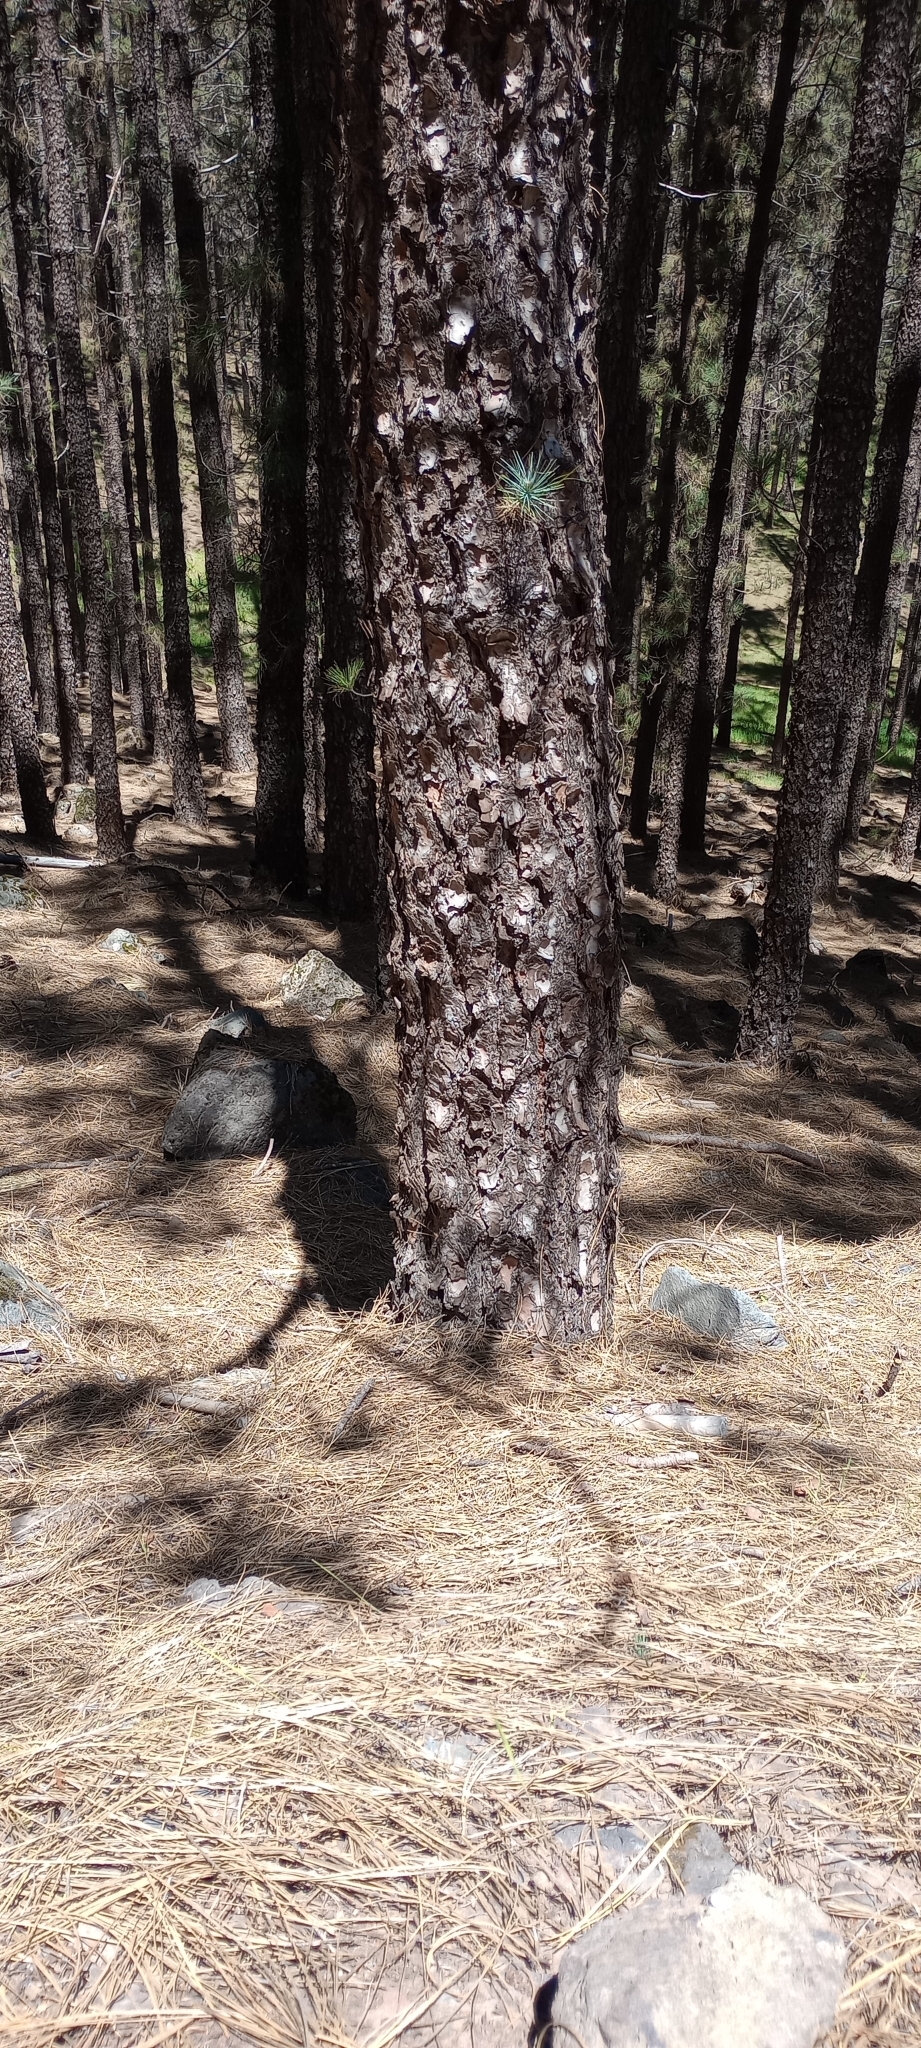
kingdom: Plantae
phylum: Tracheophyta
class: Pinopsida
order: Pinales
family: Pinaceae
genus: Pinus
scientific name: Pinus canariensis
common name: Canary islands pine
